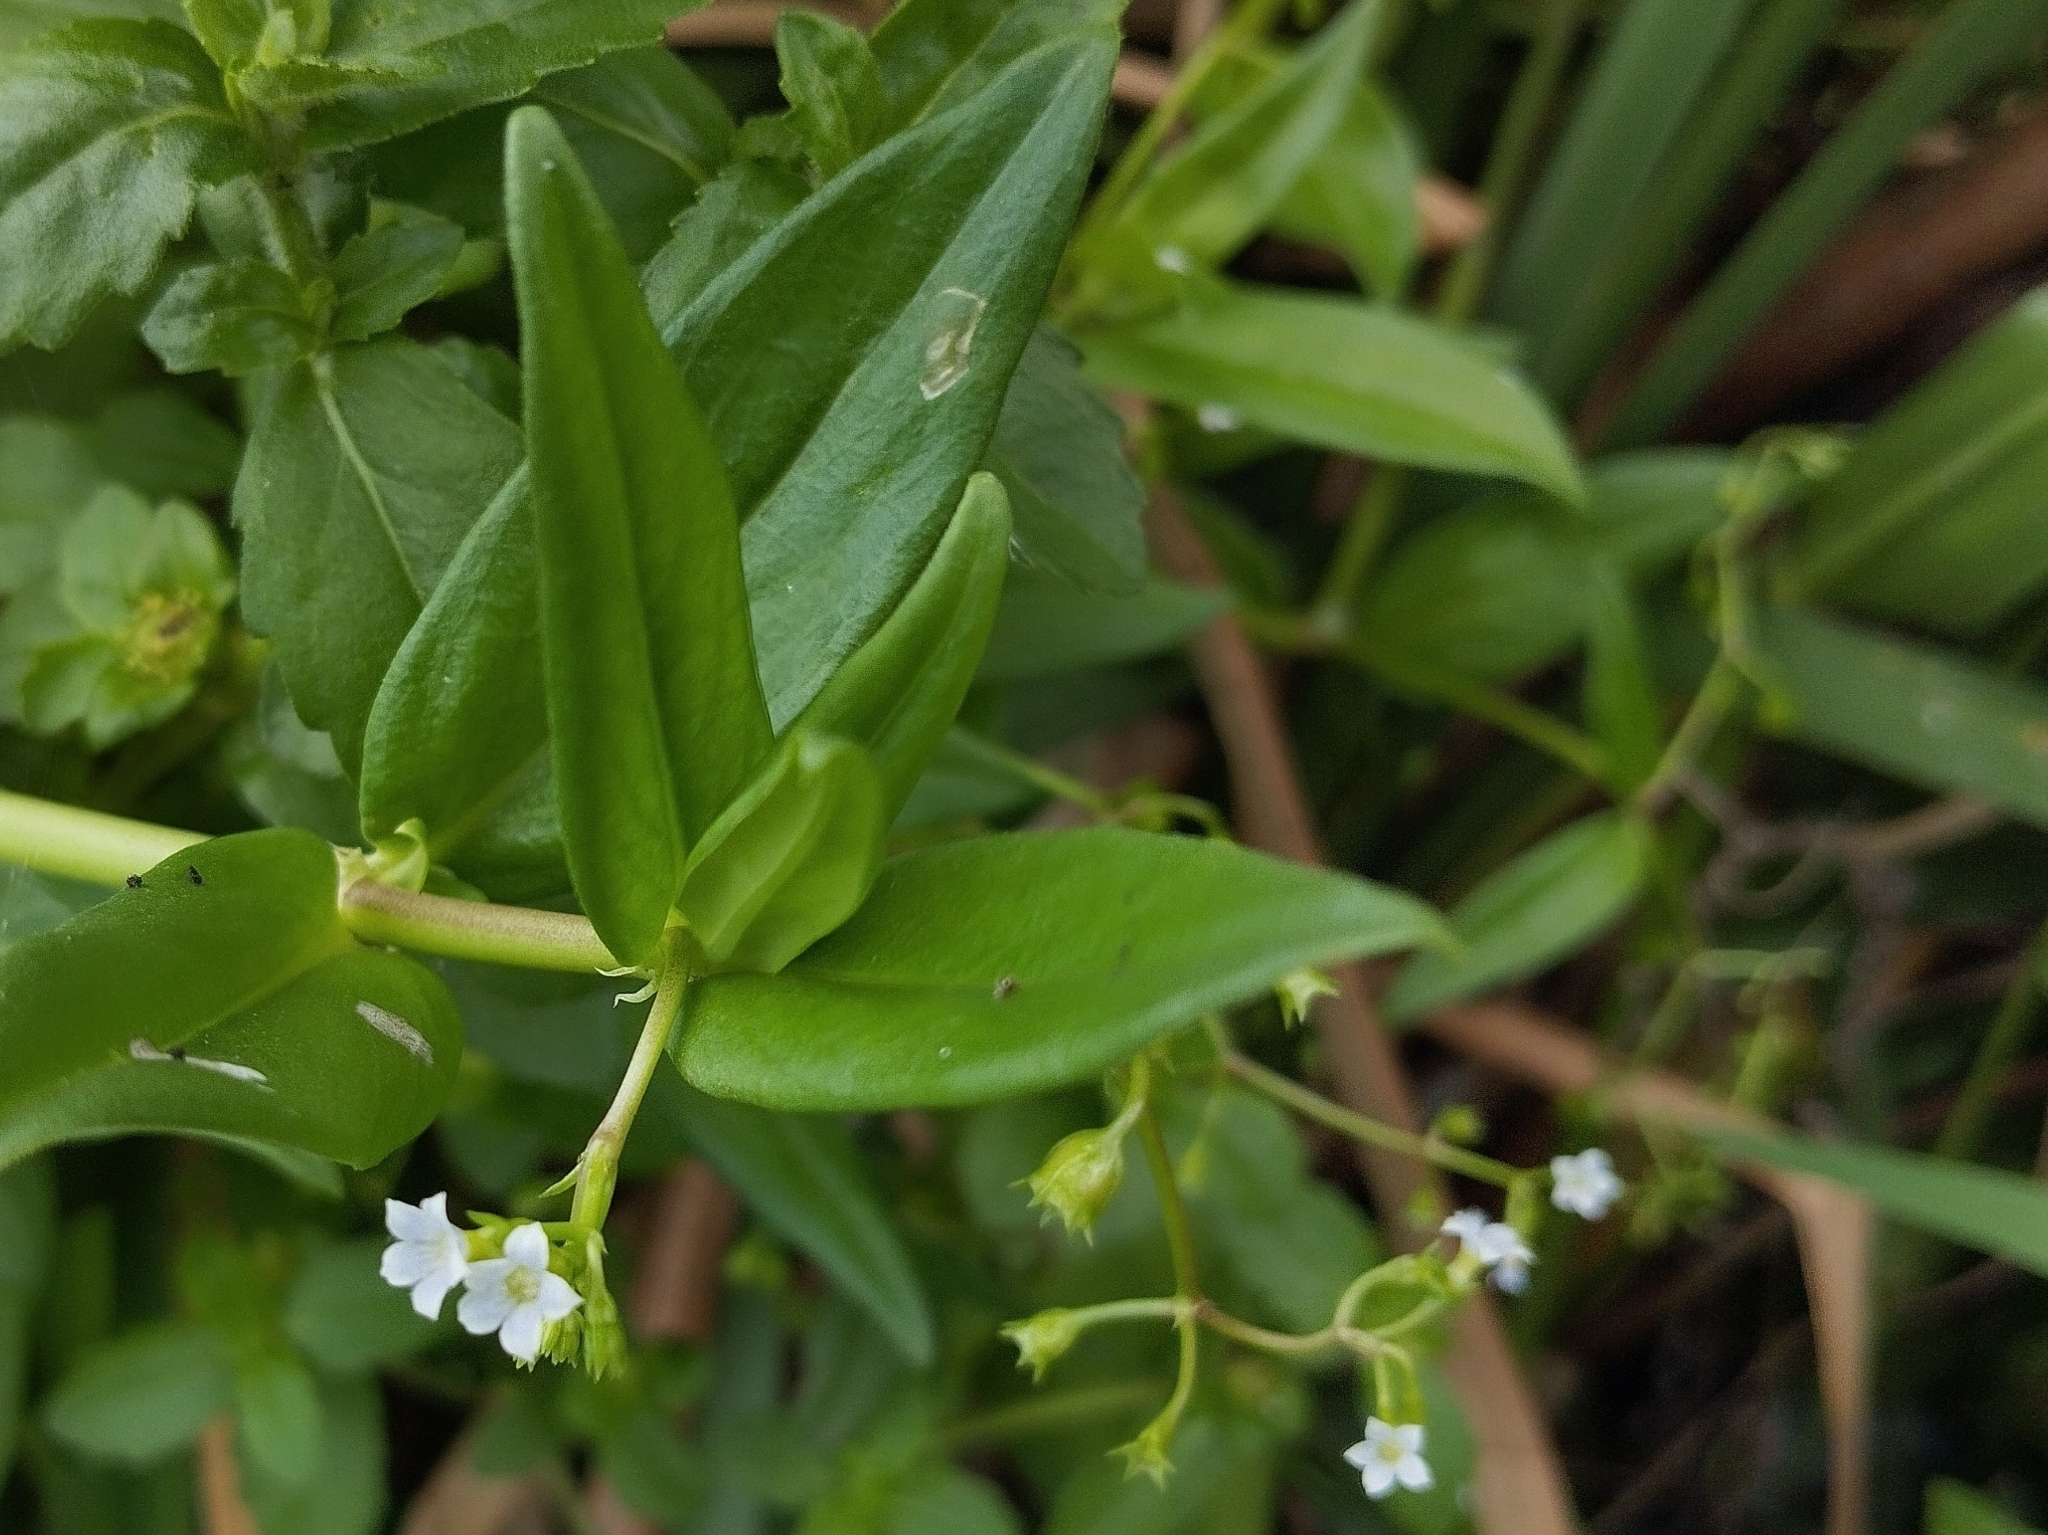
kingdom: Plantae
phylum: Tracheophyta
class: Magnoliopsida
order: Gentianales
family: Rubiaceae
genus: Oldenlandia
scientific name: Oldenlandia corymbosa
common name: Flat-top mille graines
